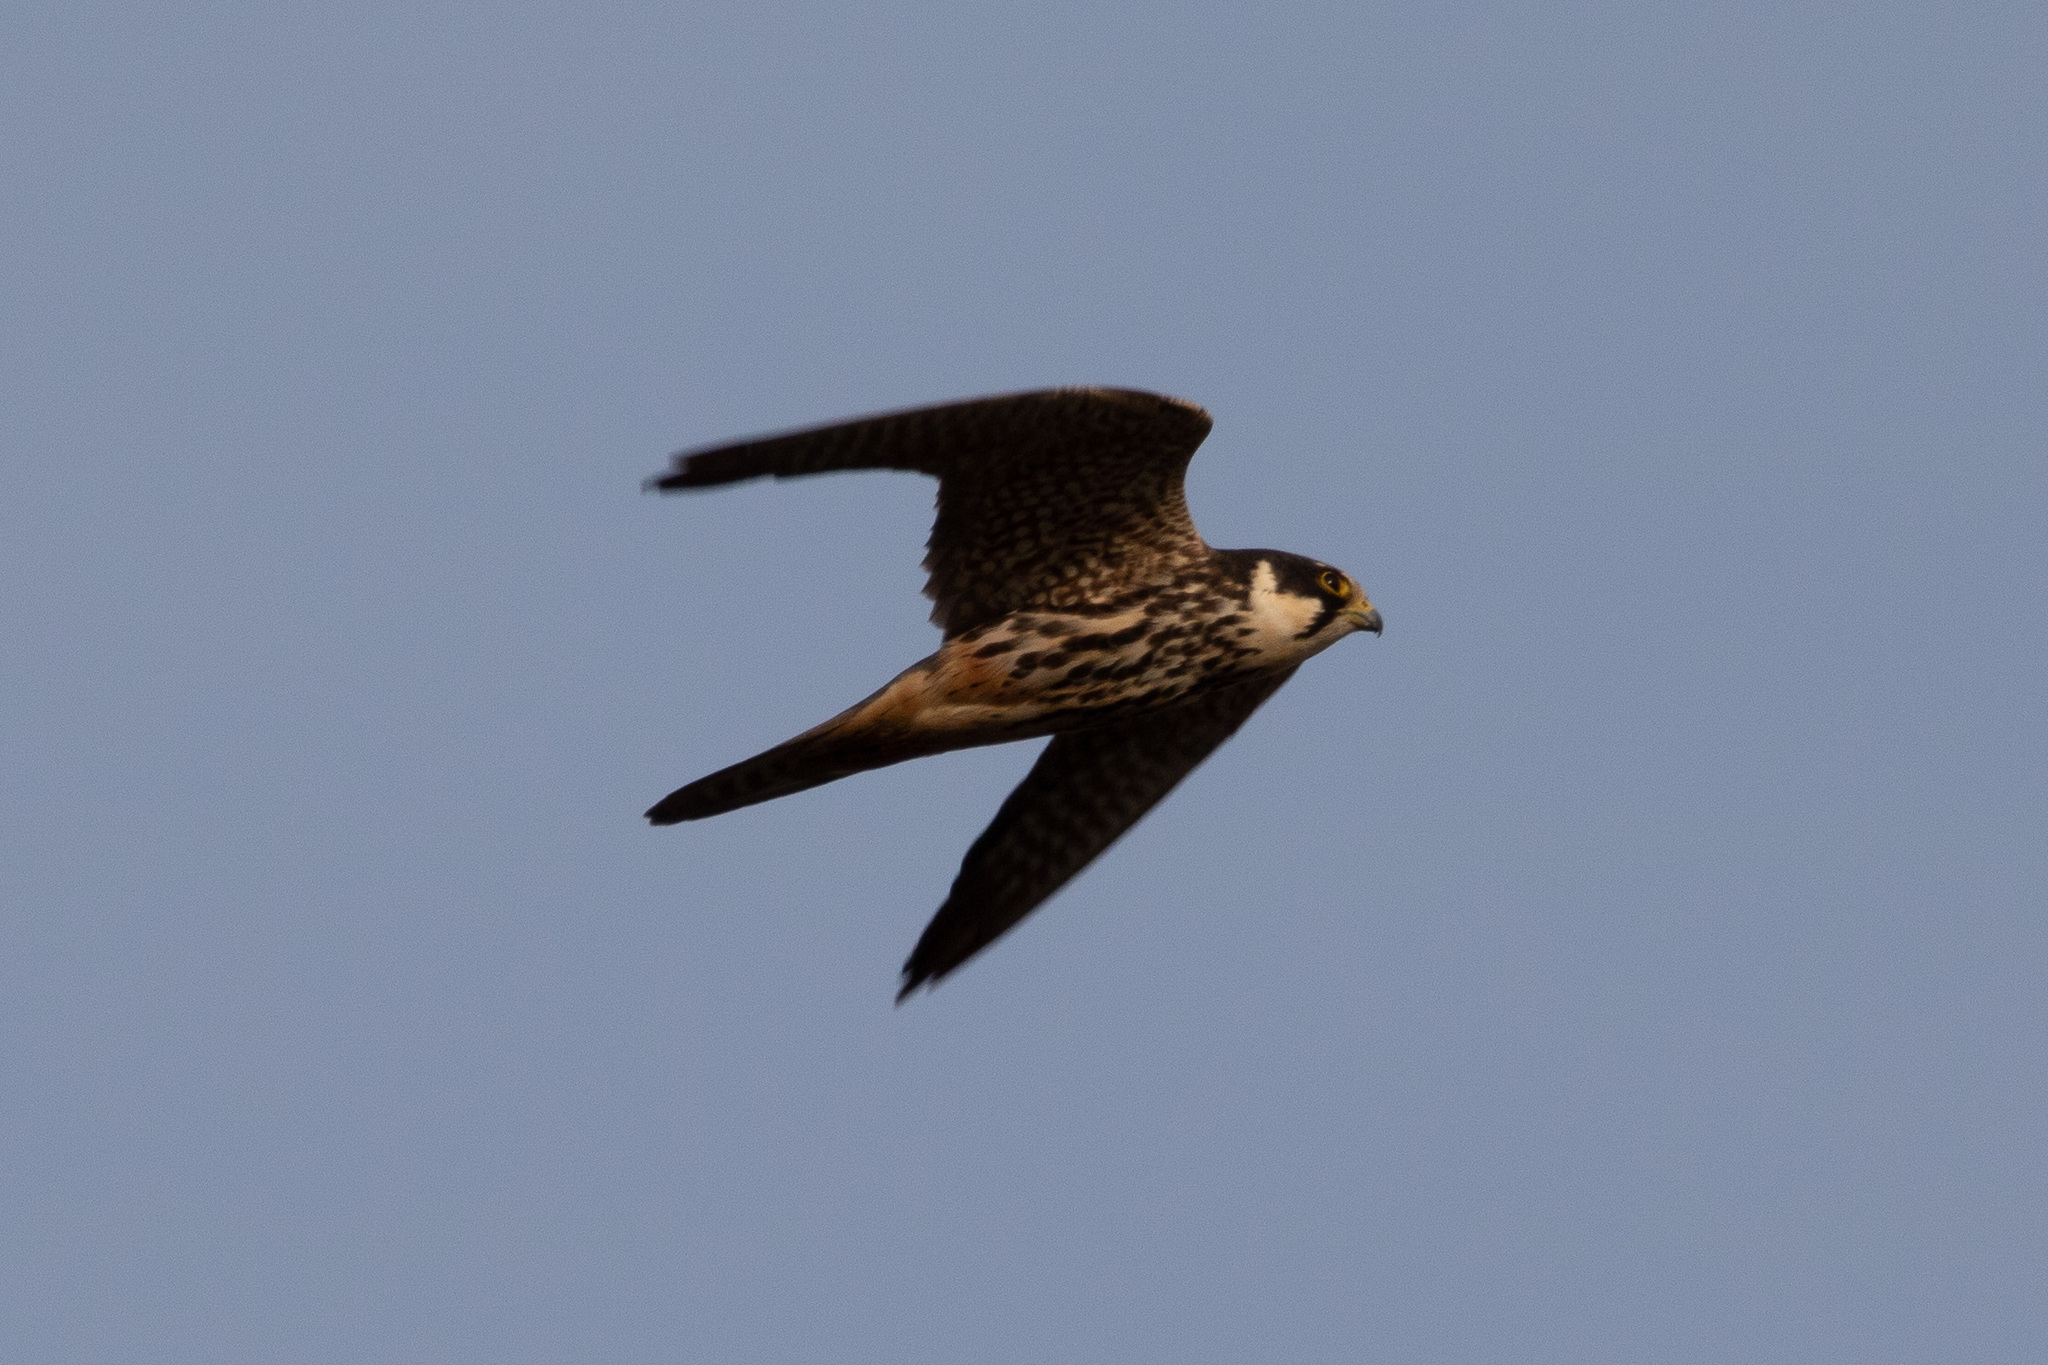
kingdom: Animalia
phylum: Chordata
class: Aves
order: Falconiformes
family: Falconidae
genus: Falco
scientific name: Falco subbuteo
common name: Eurasian hobby
